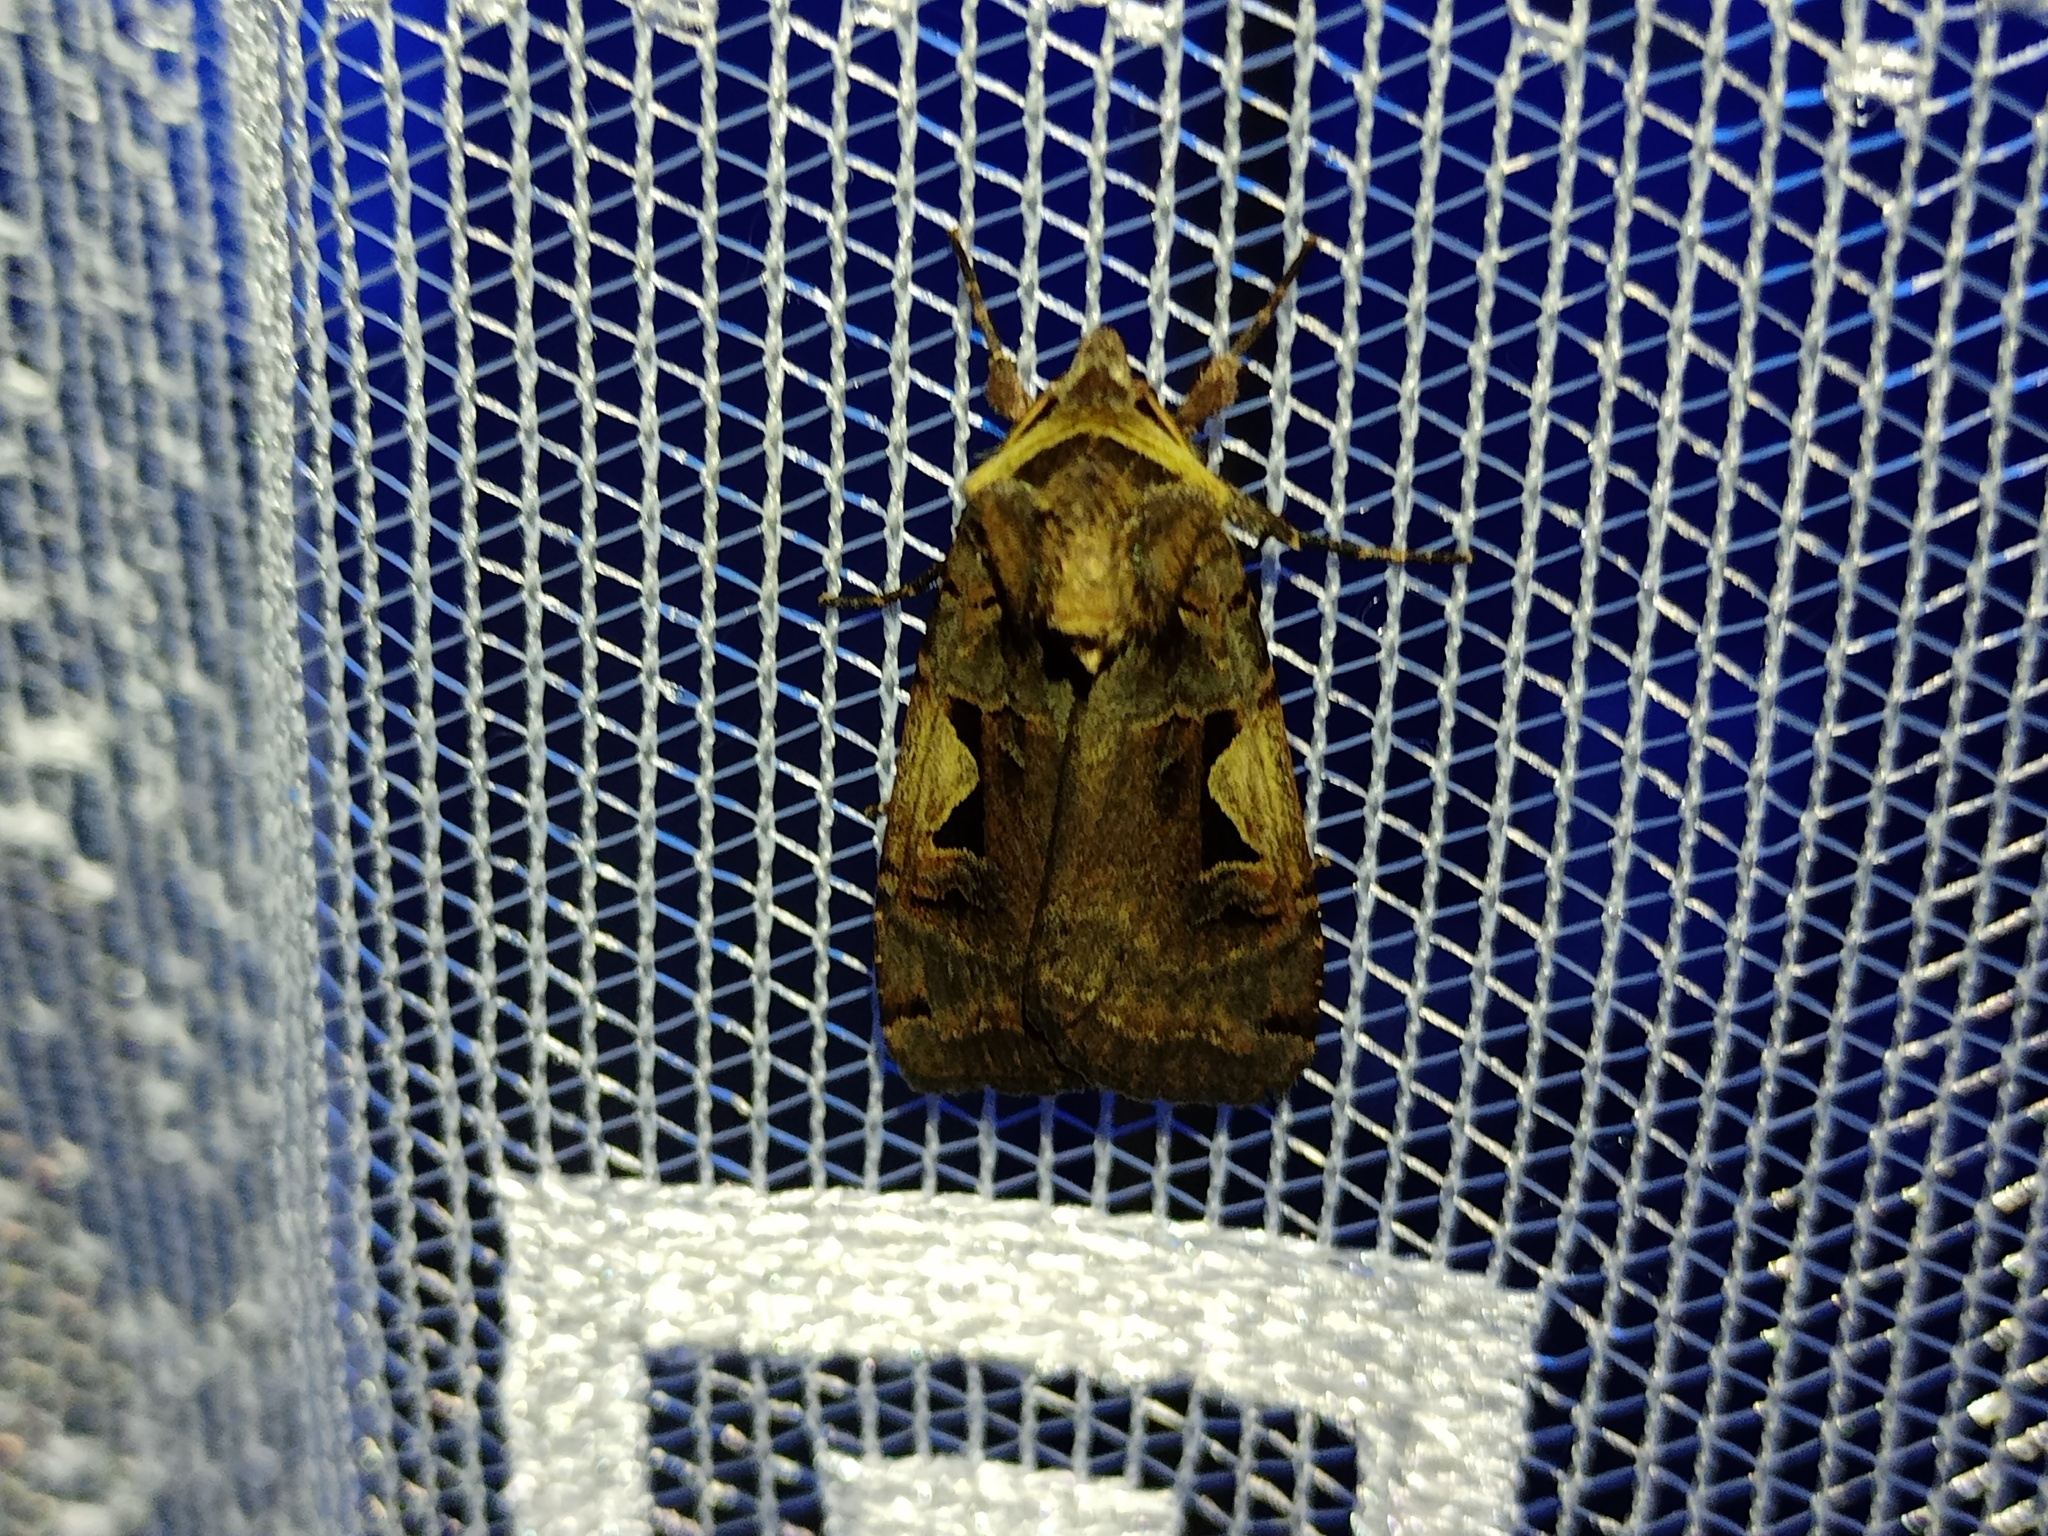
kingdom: Animalia
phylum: Arthropoda
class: Insecta
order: Lepidoptera
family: Noctuidae
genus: Xestia
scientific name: Xestia c-nigrum
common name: Setaceous hebrew character
